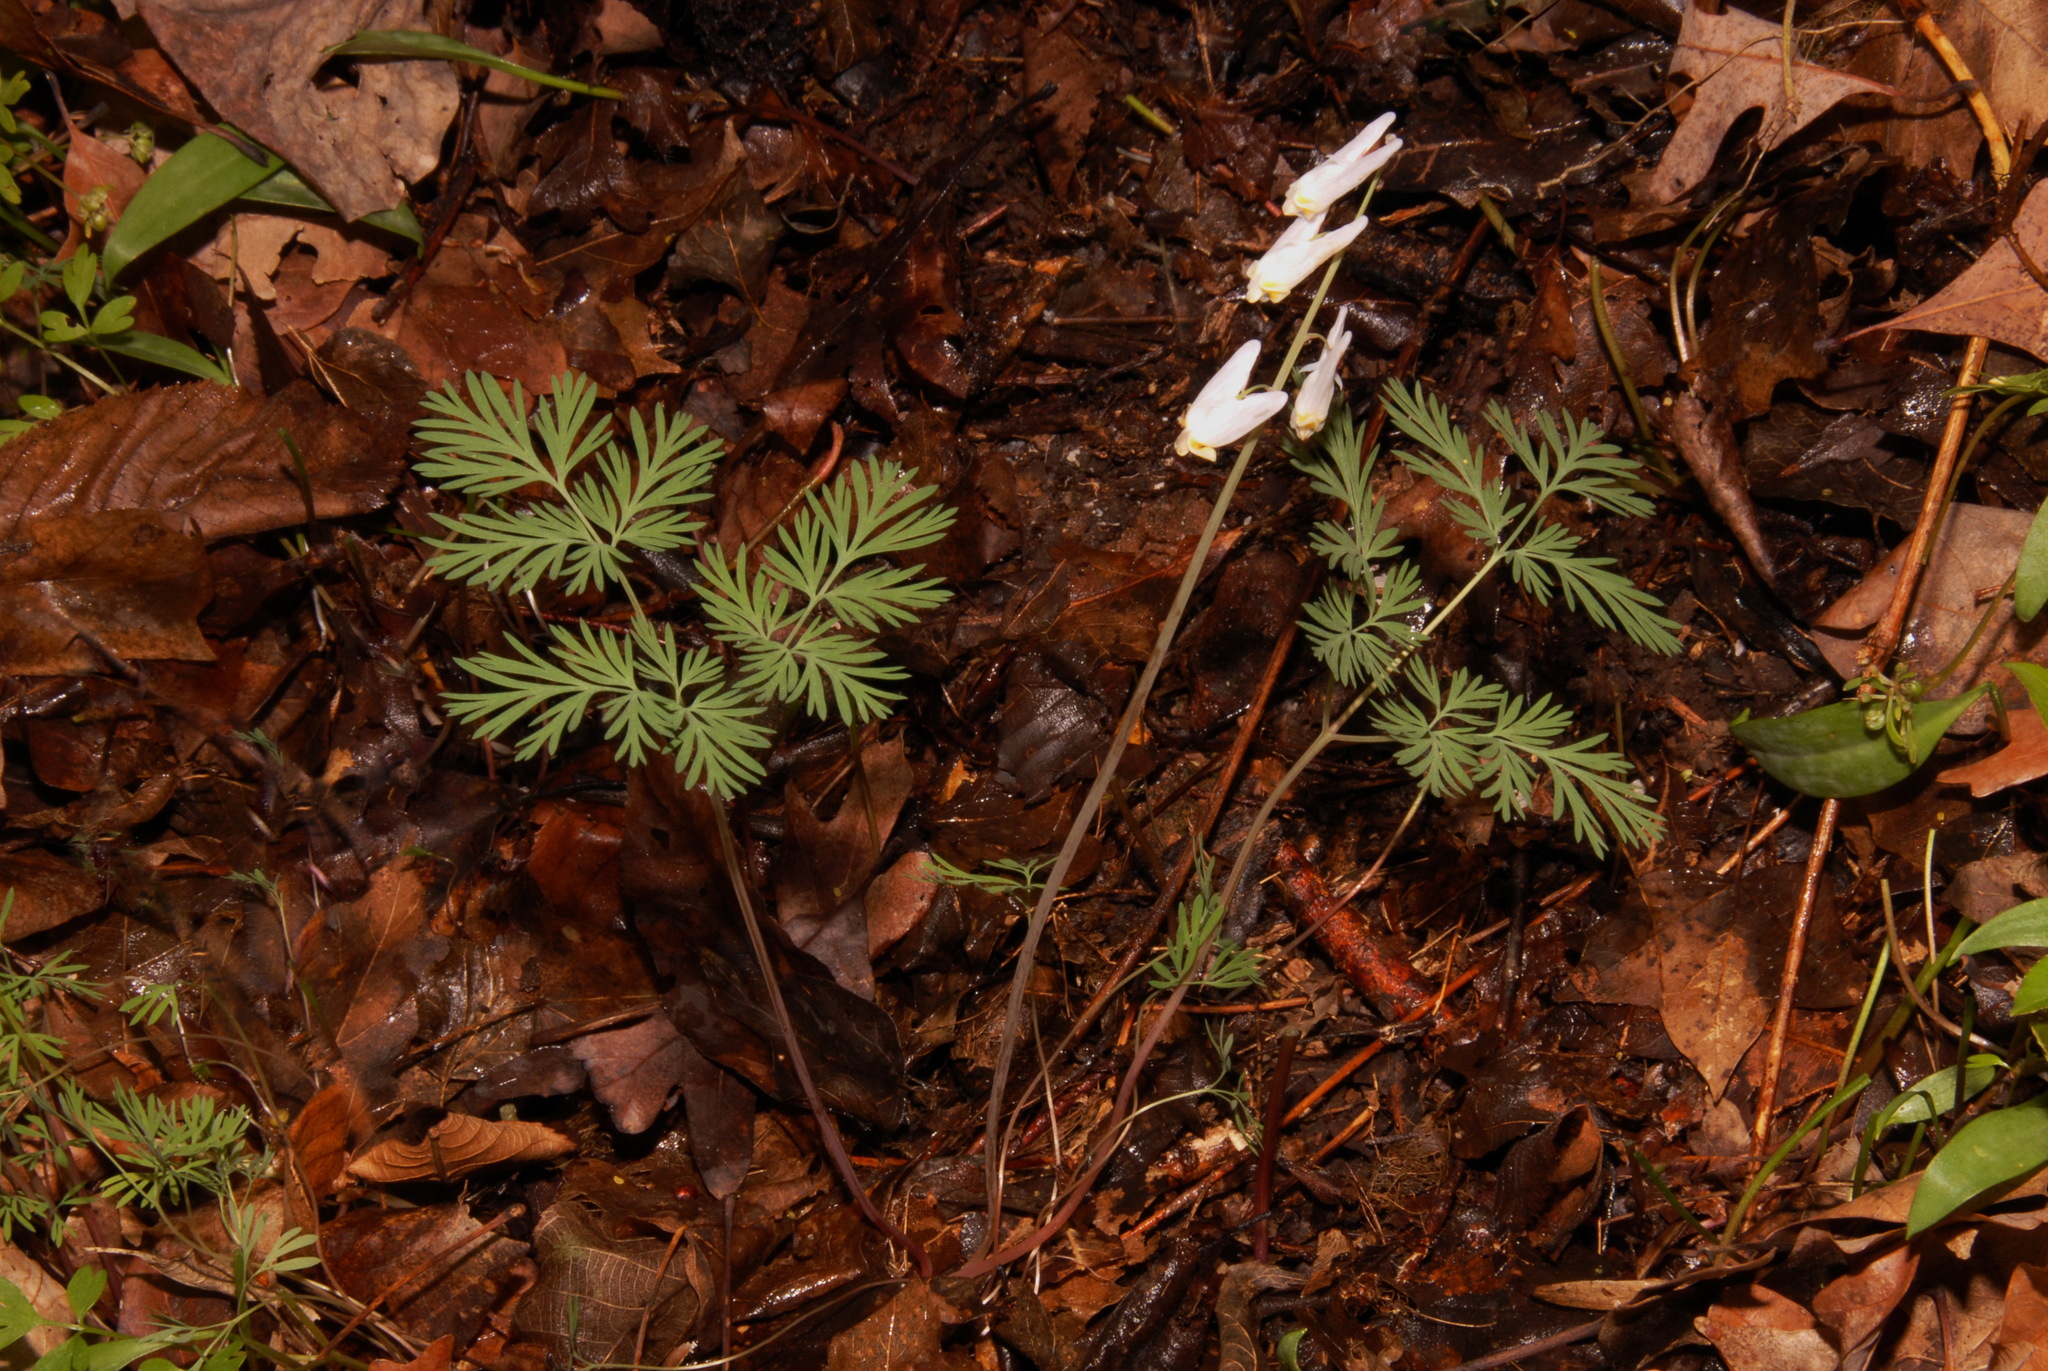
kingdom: Plantae
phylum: Tracheophyta
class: Magnoliopsida
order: Ranunculales
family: Papaveraceae
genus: Dicentra
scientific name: Dicentra cucullaria
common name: Dutchman's breeches
